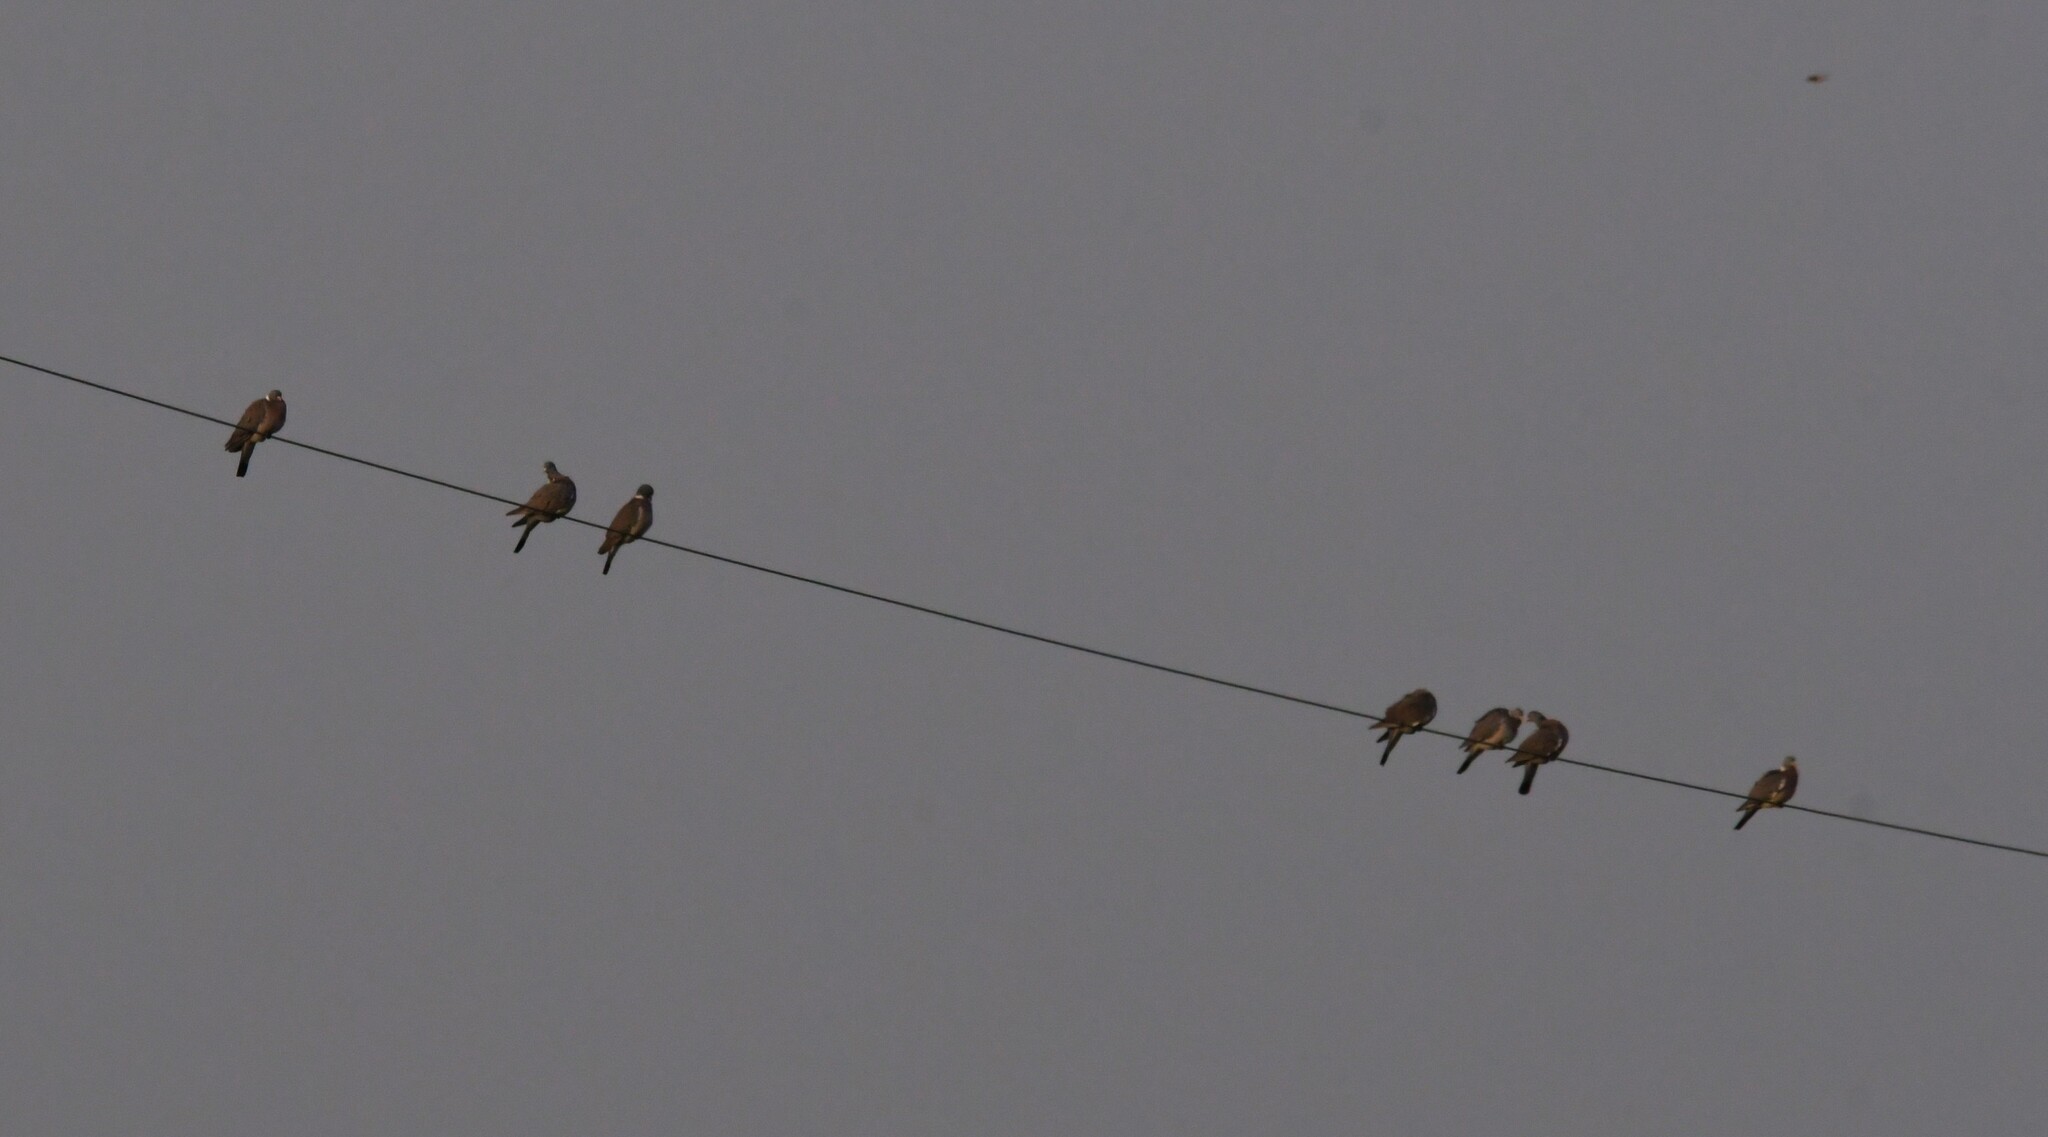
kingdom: Animalia
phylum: Chordata
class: Aves
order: Columbiformes
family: Columbidae
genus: Columba
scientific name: Columba palumbus
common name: Common wood pigeon
